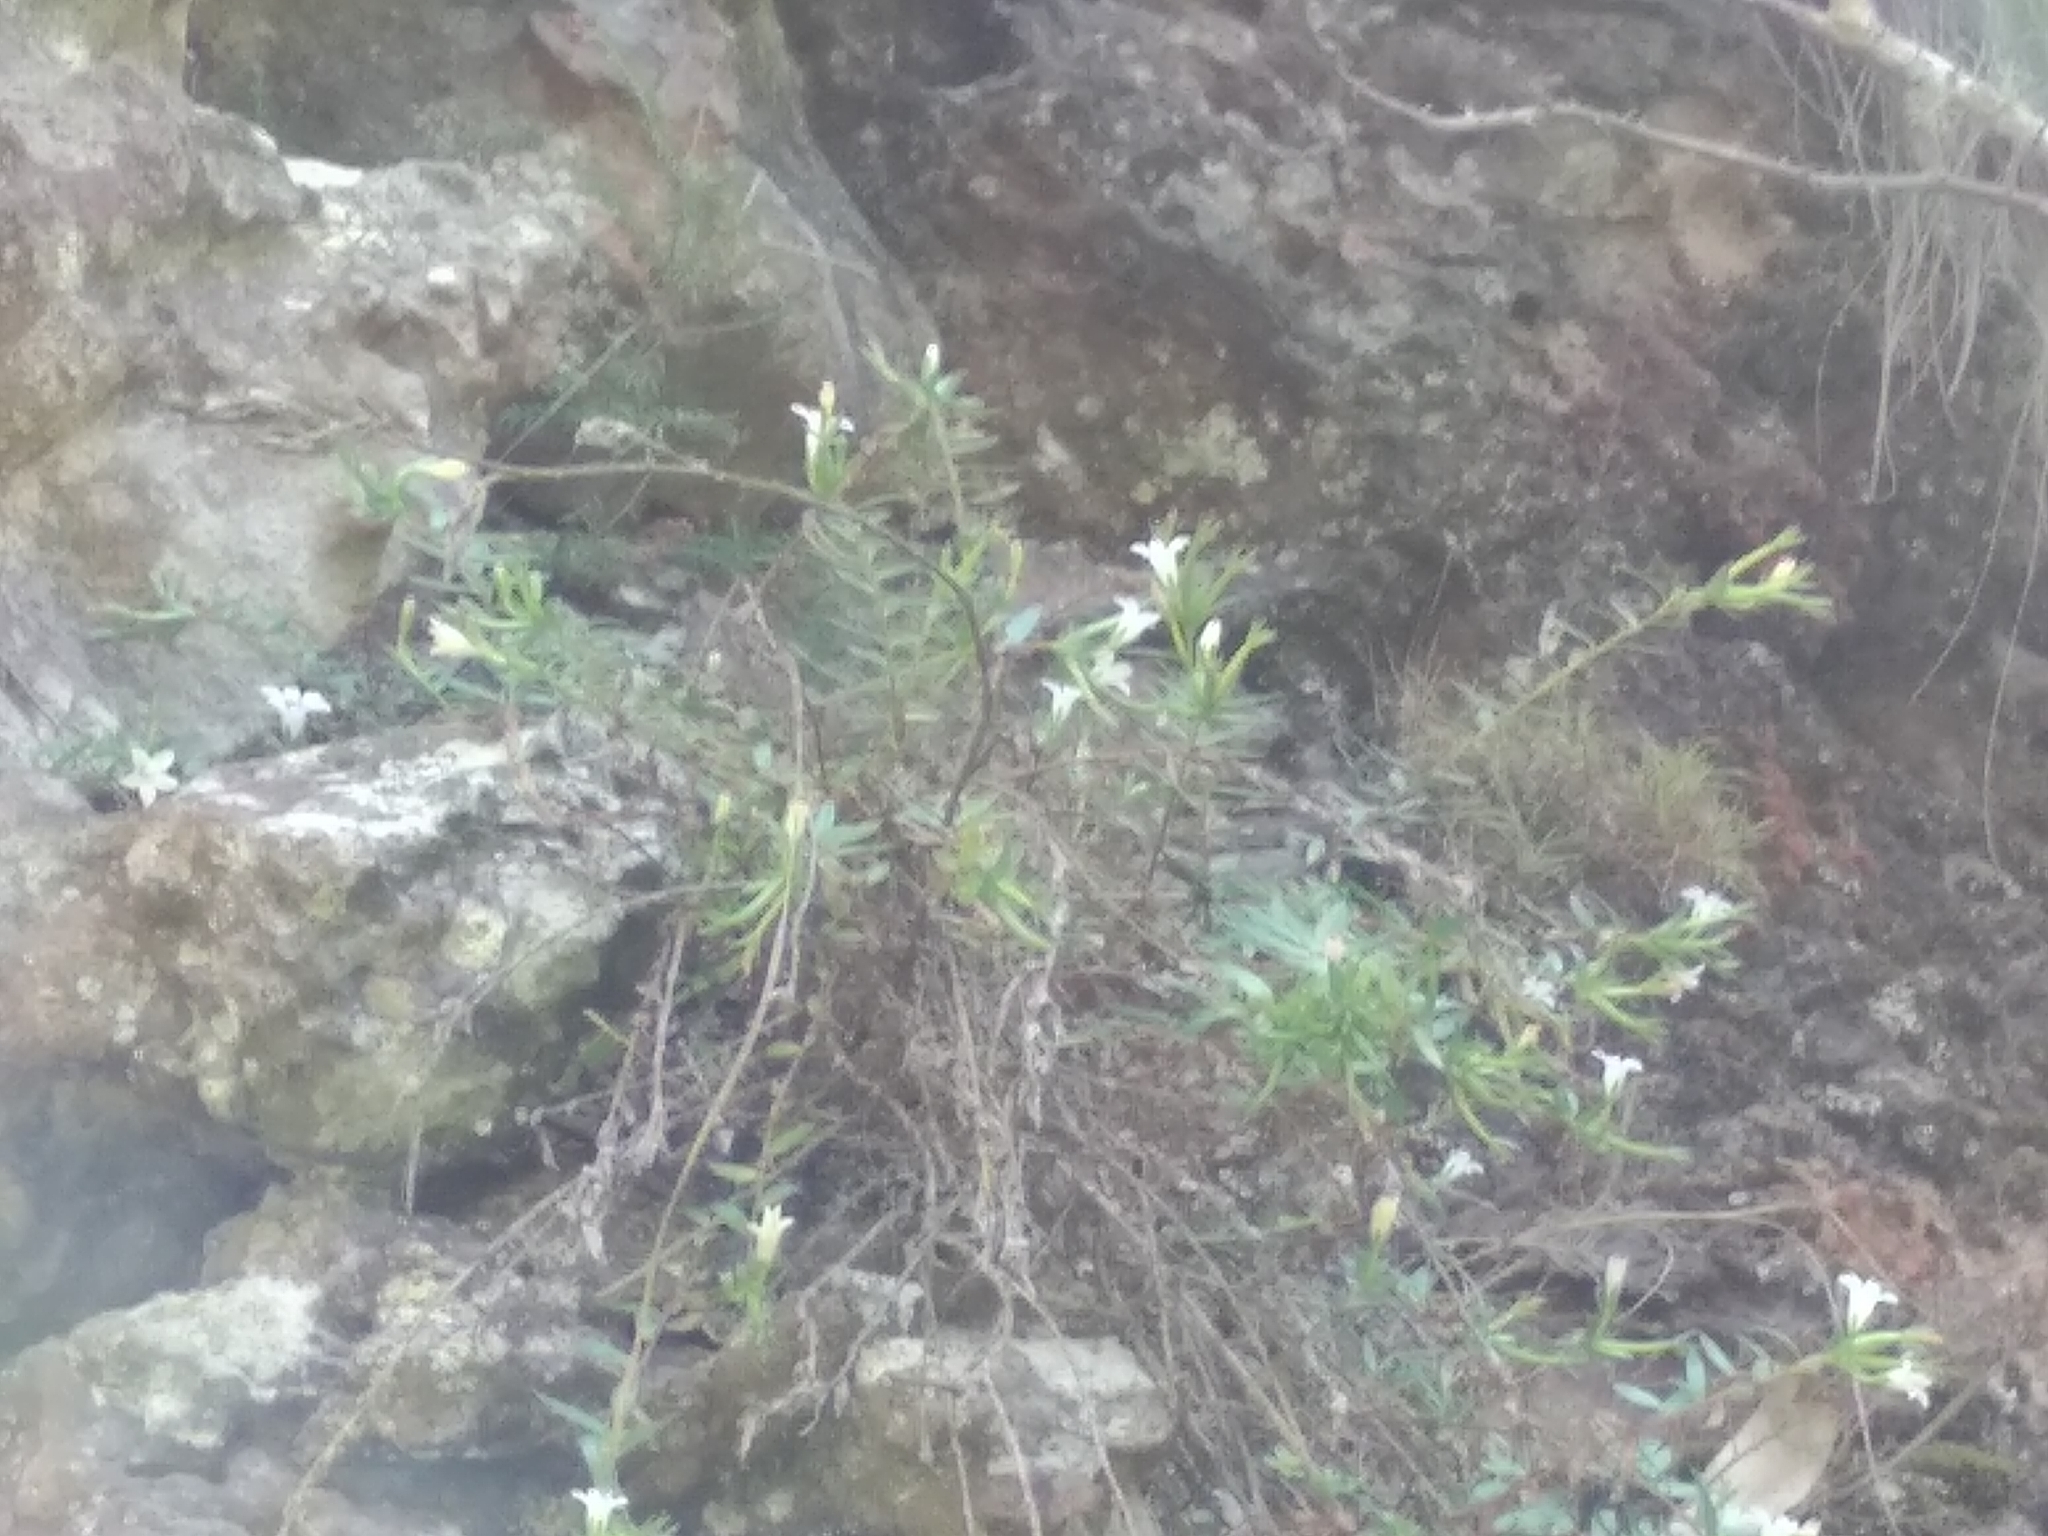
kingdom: Plantae
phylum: Tracheophyta
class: Magnoliopsida
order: Asterales
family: Campanulaceae
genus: Prismatocarpus
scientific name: Prismatocarpus nitidus
